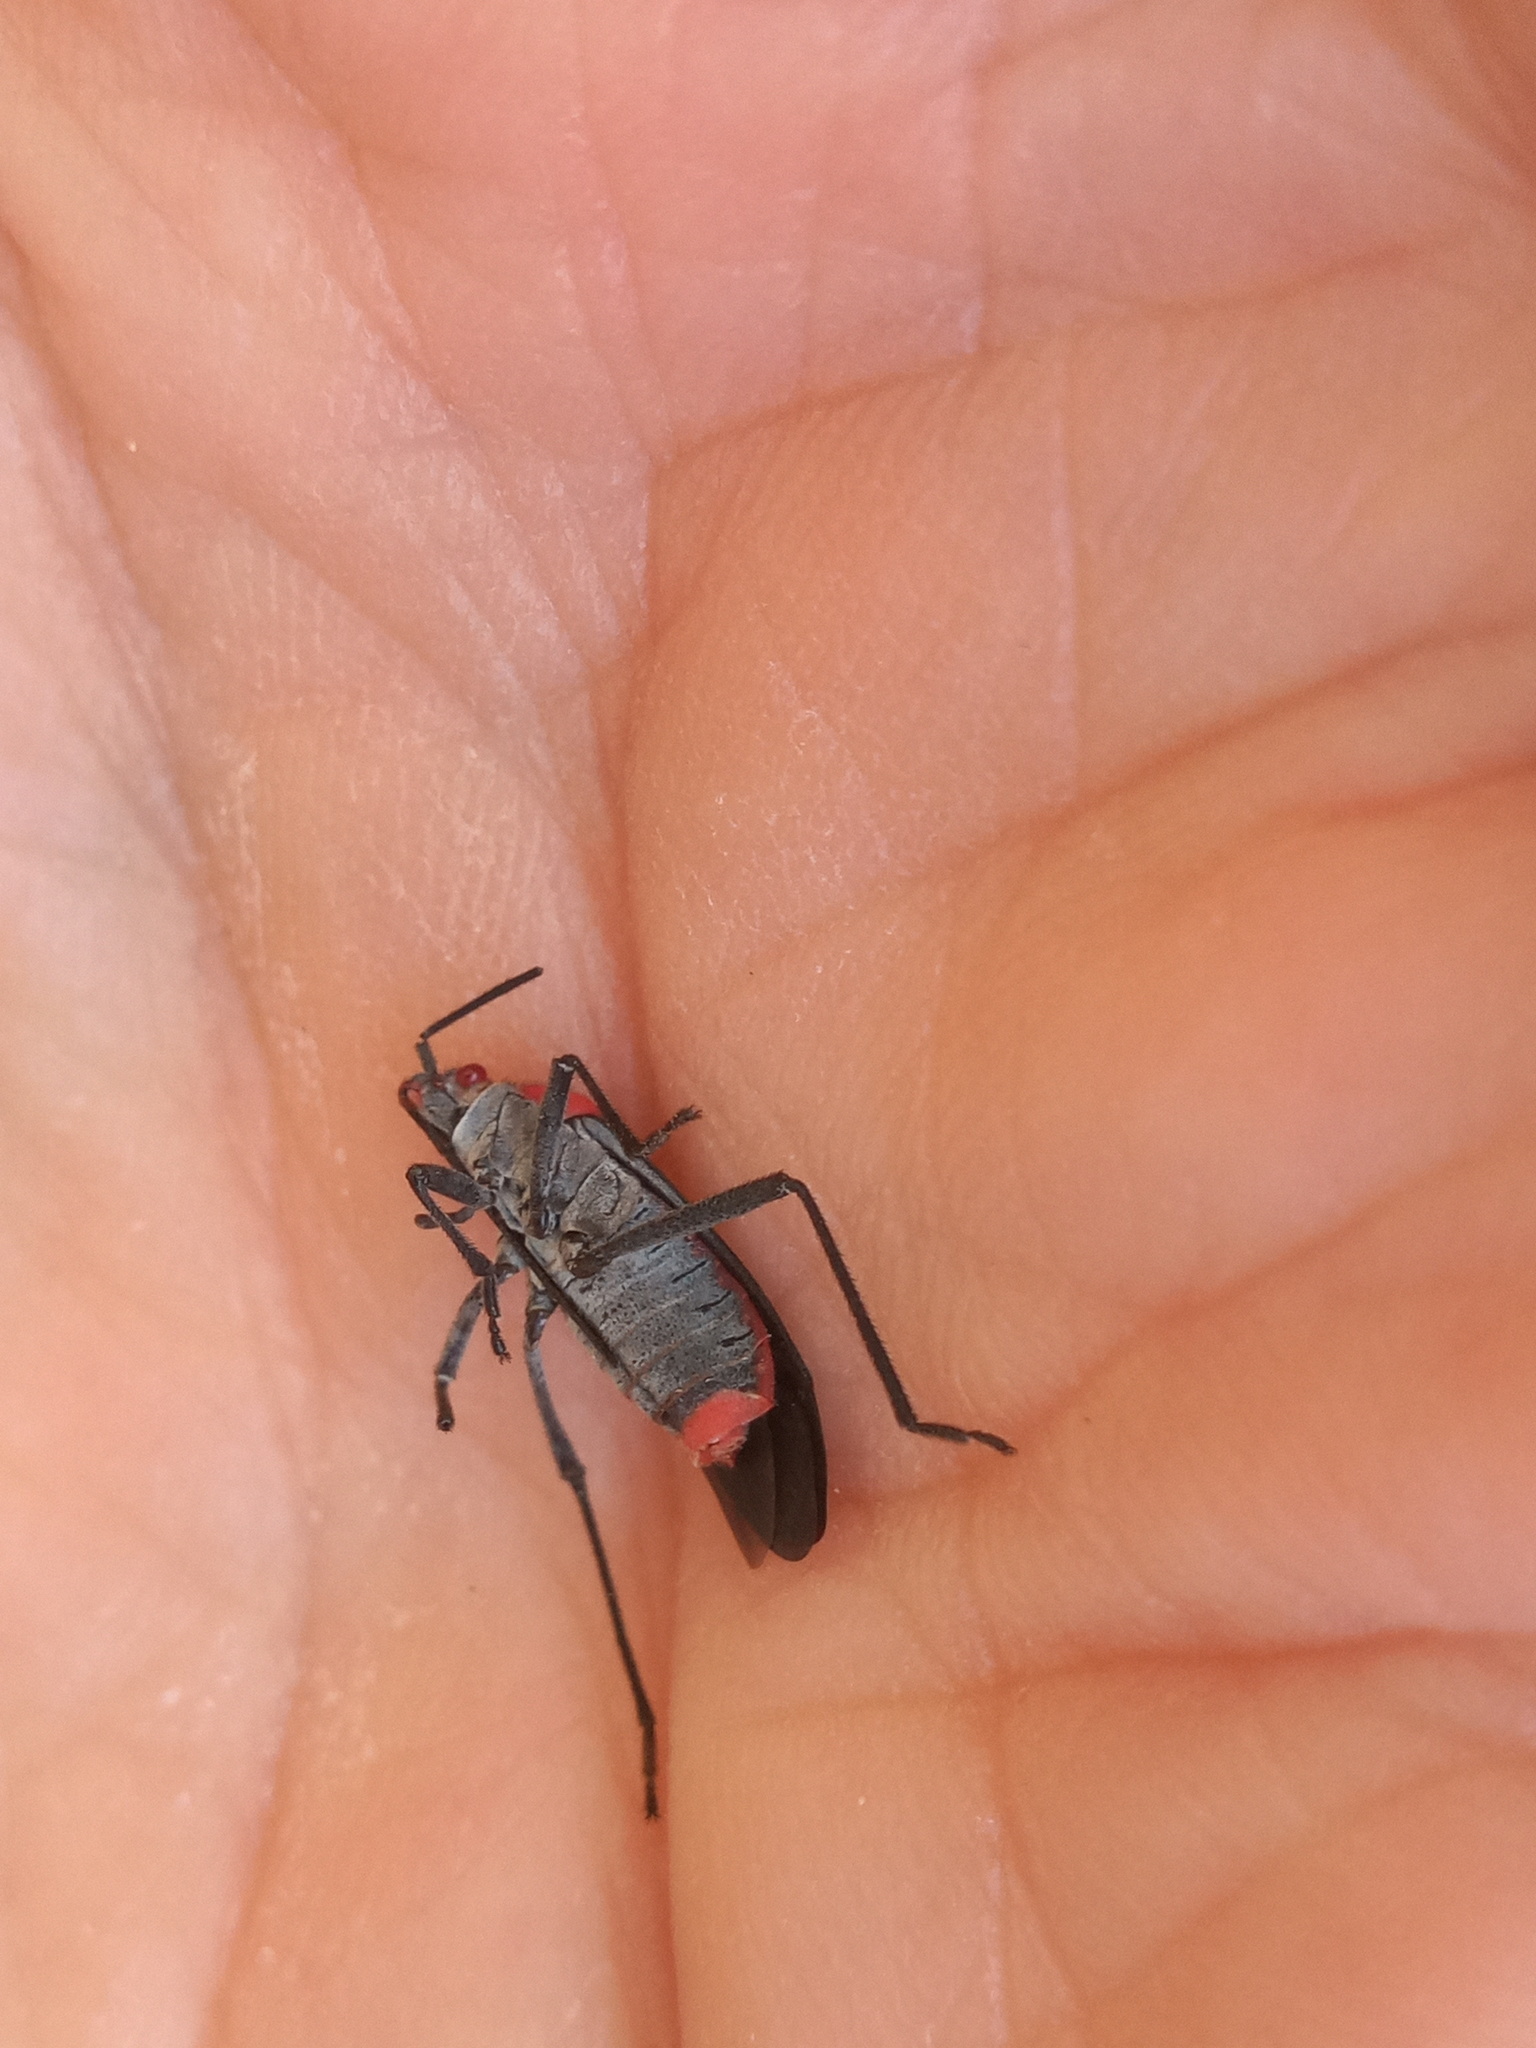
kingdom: Animalia
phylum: Arthropoda
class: Insecta
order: Hemiptera
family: Rhopalidae
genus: Jadera
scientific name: Jadera haematoloma
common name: Red-shouldered bug
